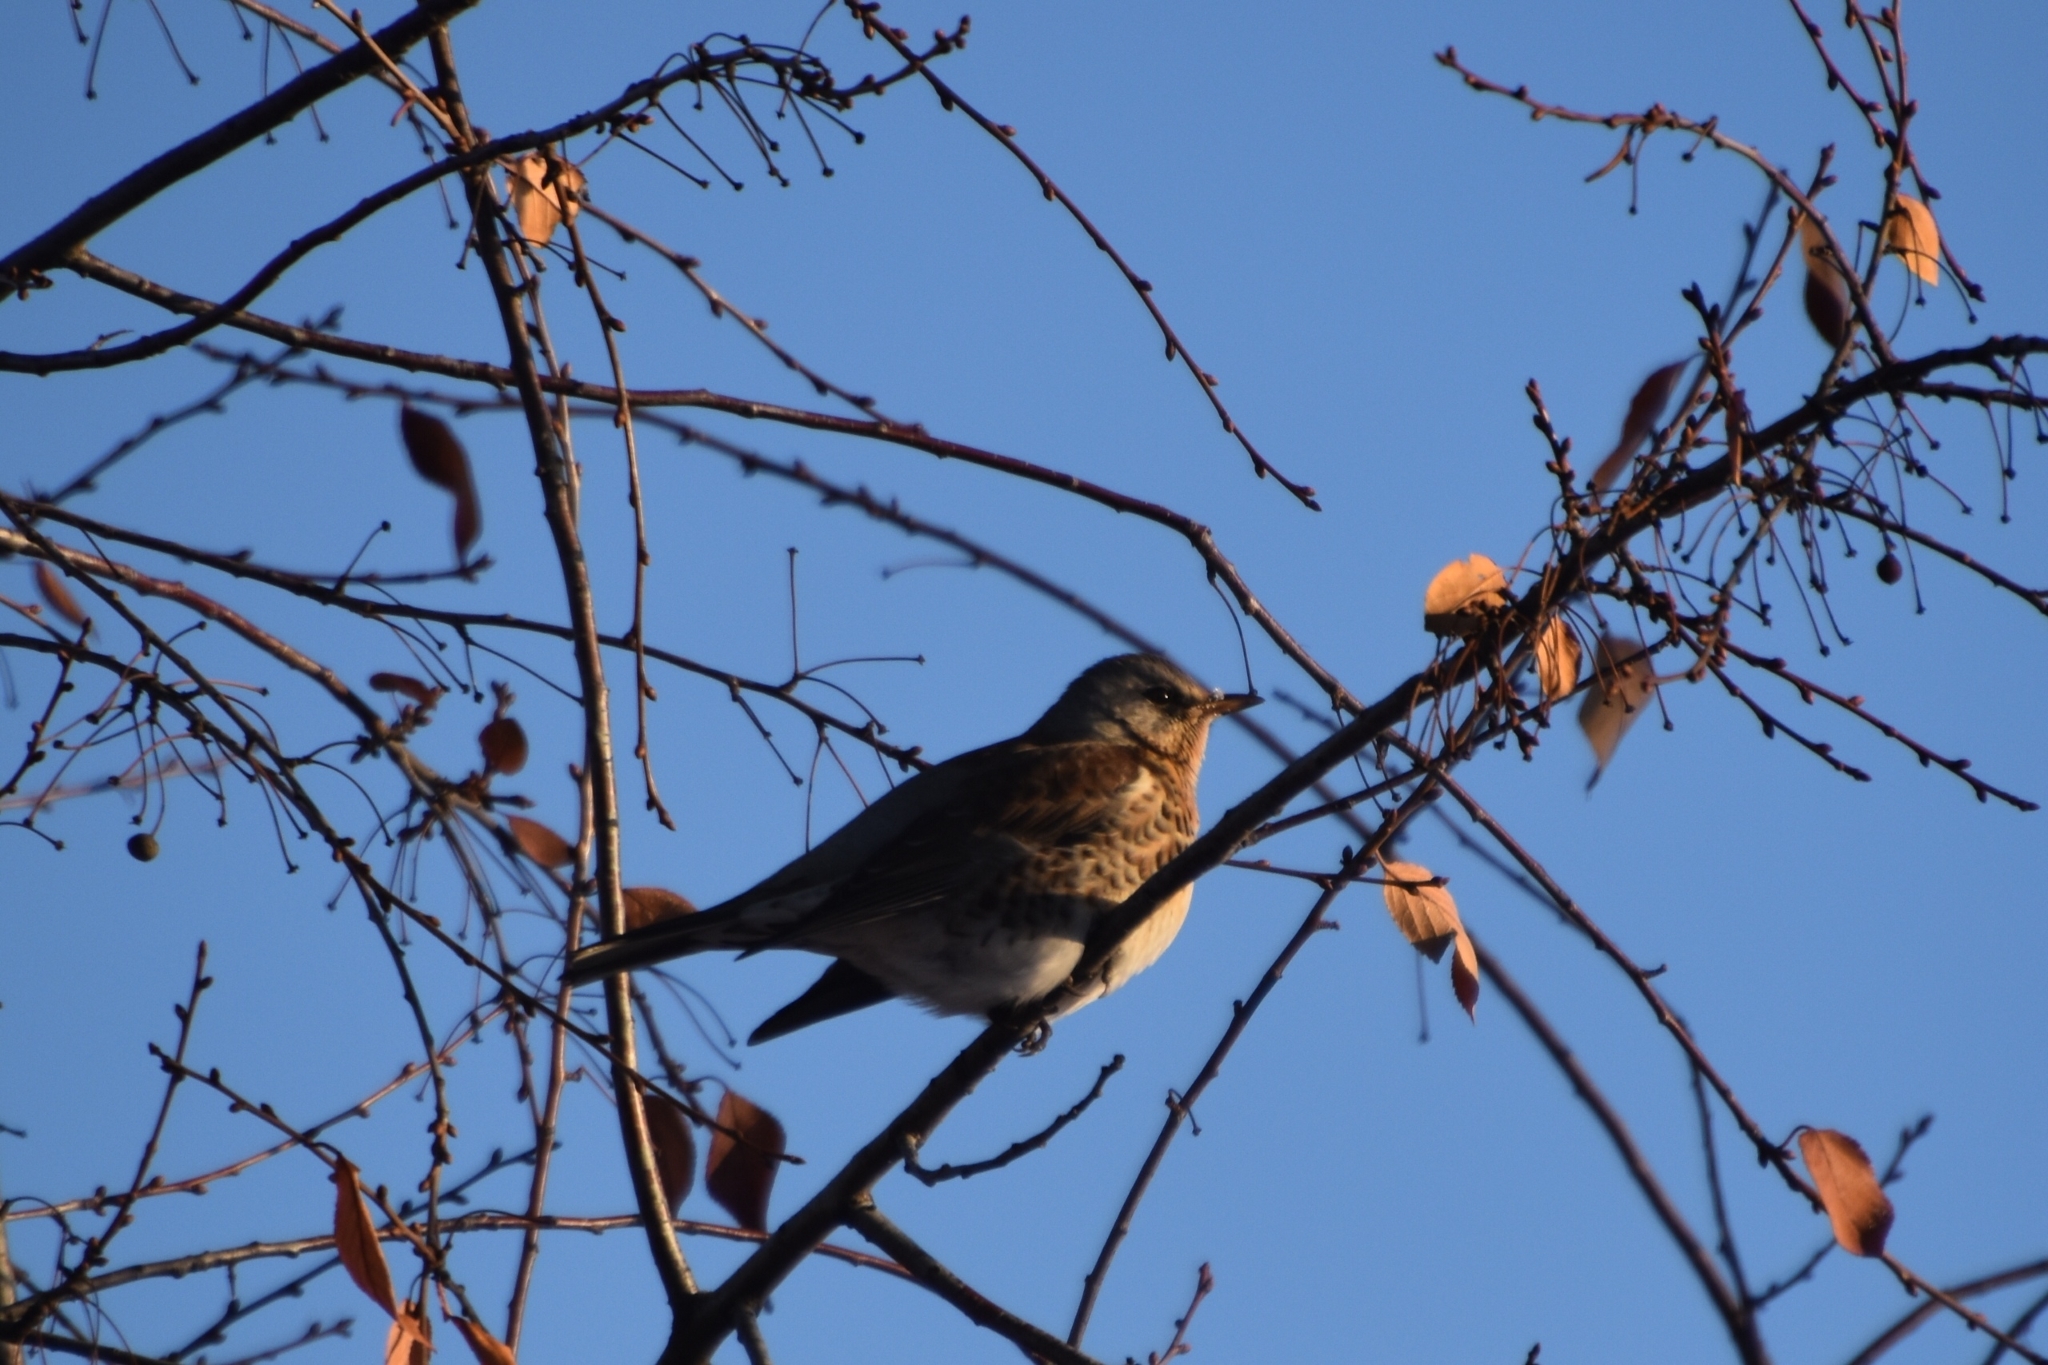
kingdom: Animalia
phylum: Chordata
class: Aves
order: Passeriformes
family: Turdidae
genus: Turdus
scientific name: Turdus pilaris
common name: Fieldfare
